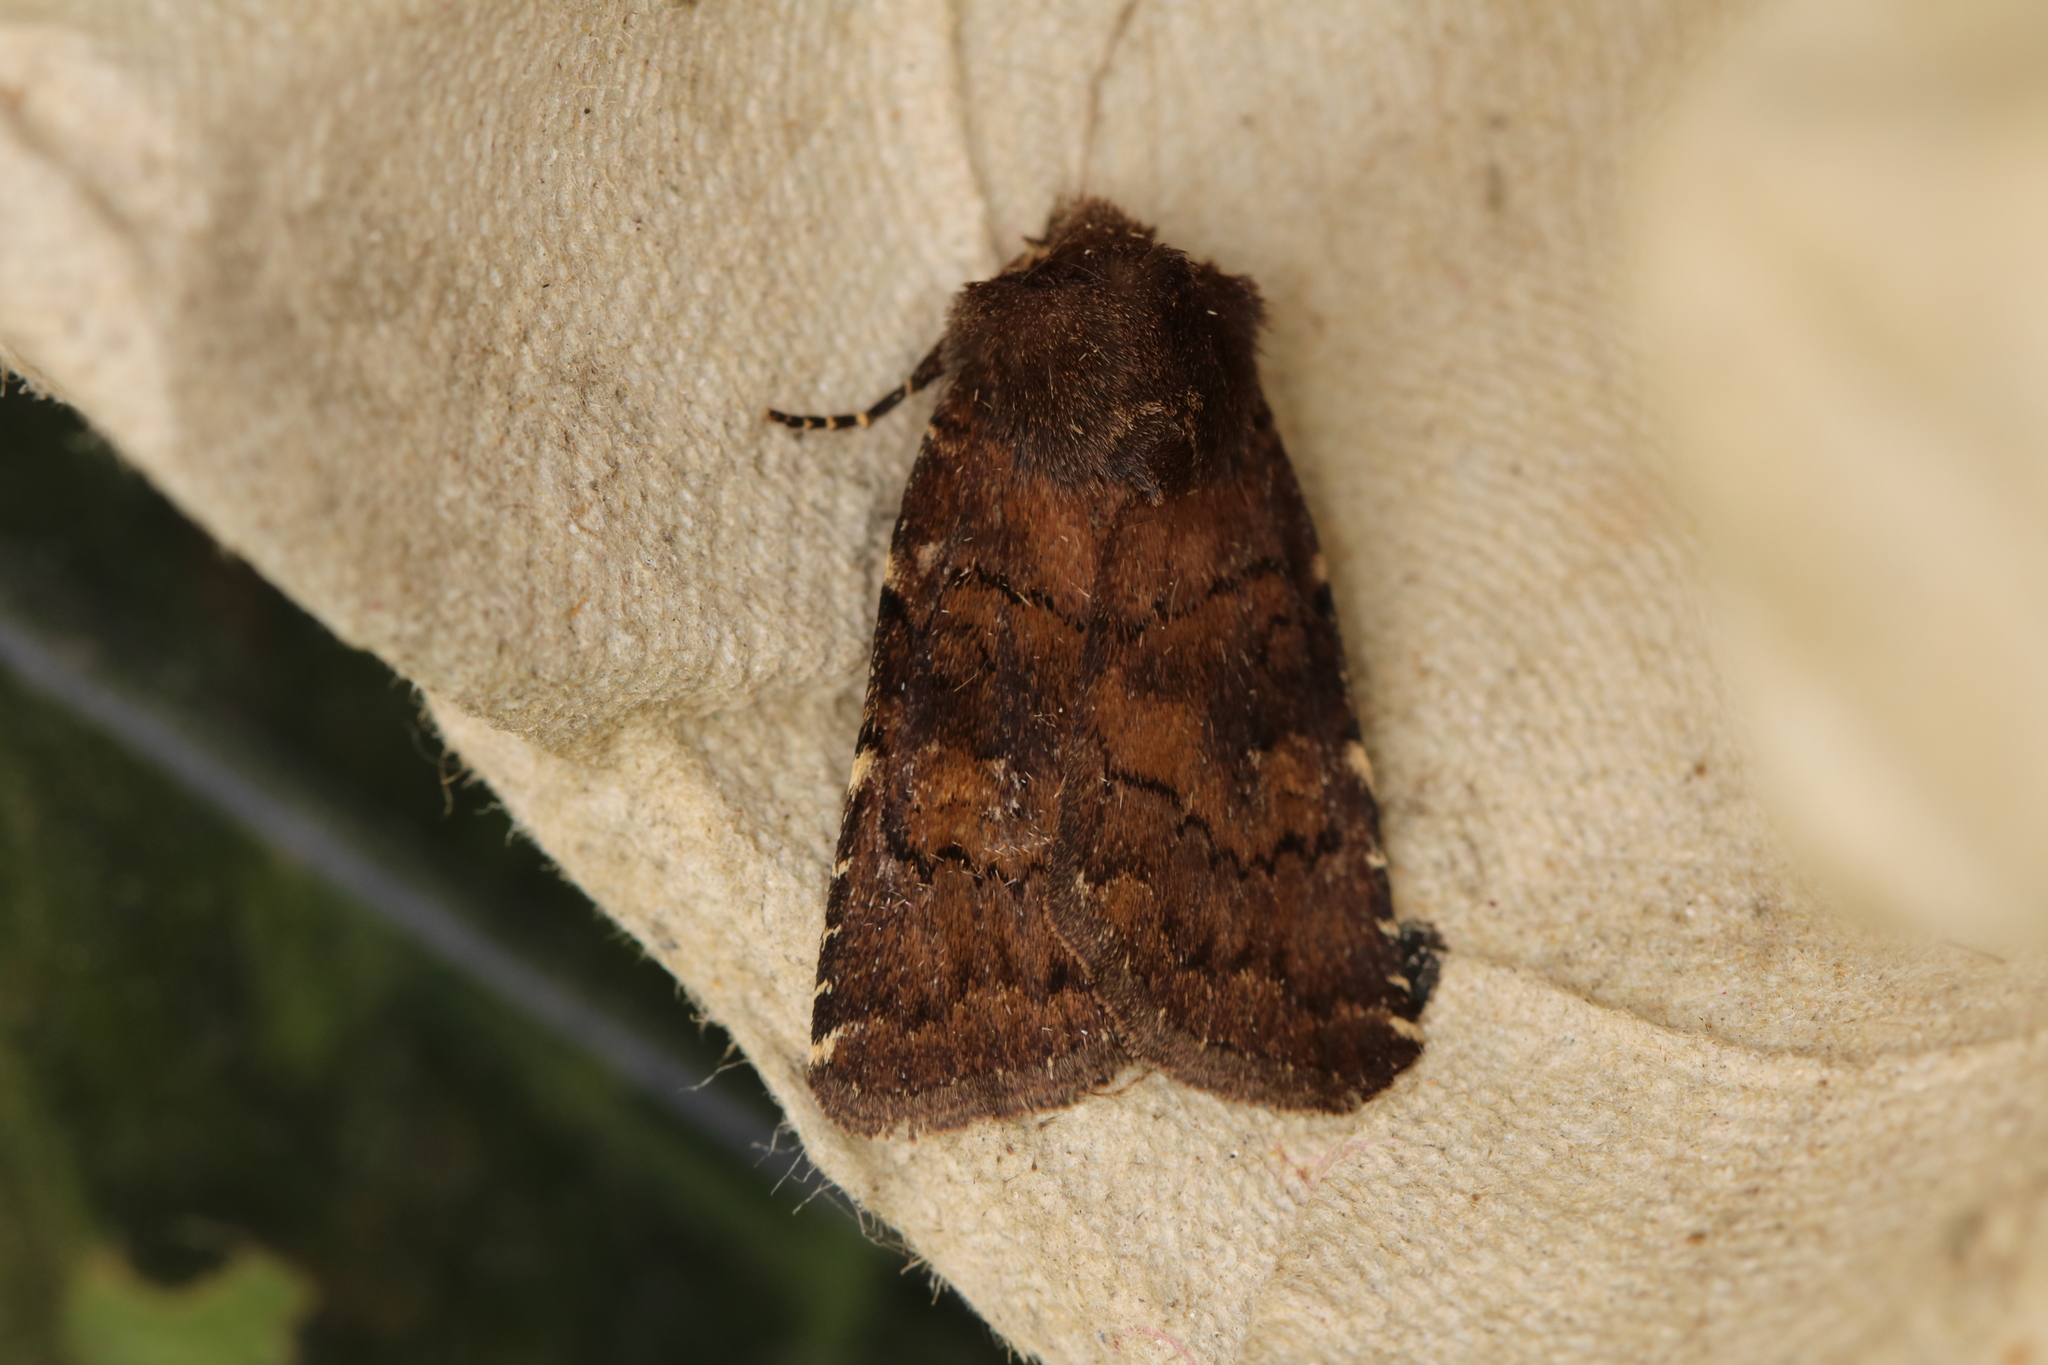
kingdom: Animalia
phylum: Arthropoda
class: Insecta
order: Lepidoptera
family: Noctuidae
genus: Charanyca
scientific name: Charanyca ferruginea
